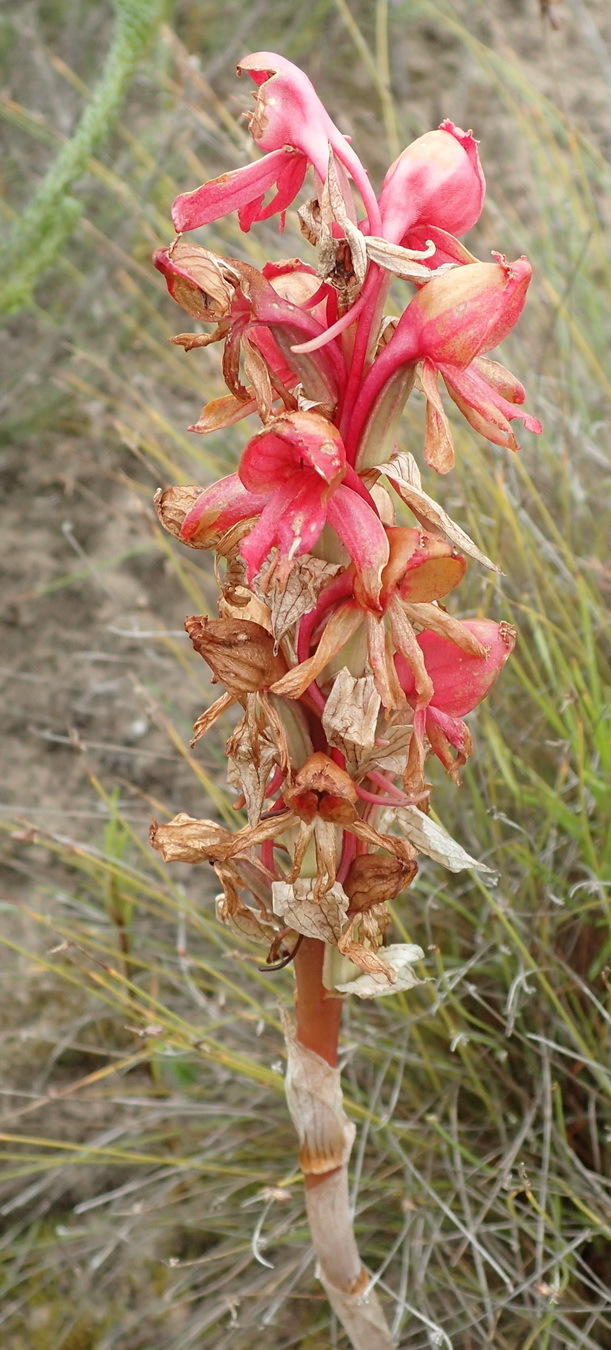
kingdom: Plantae
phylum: Tracheophyta
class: Liliopsida
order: Asparagales
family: Orchidaceae
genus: Satyrium
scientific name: Satyrium princeps
